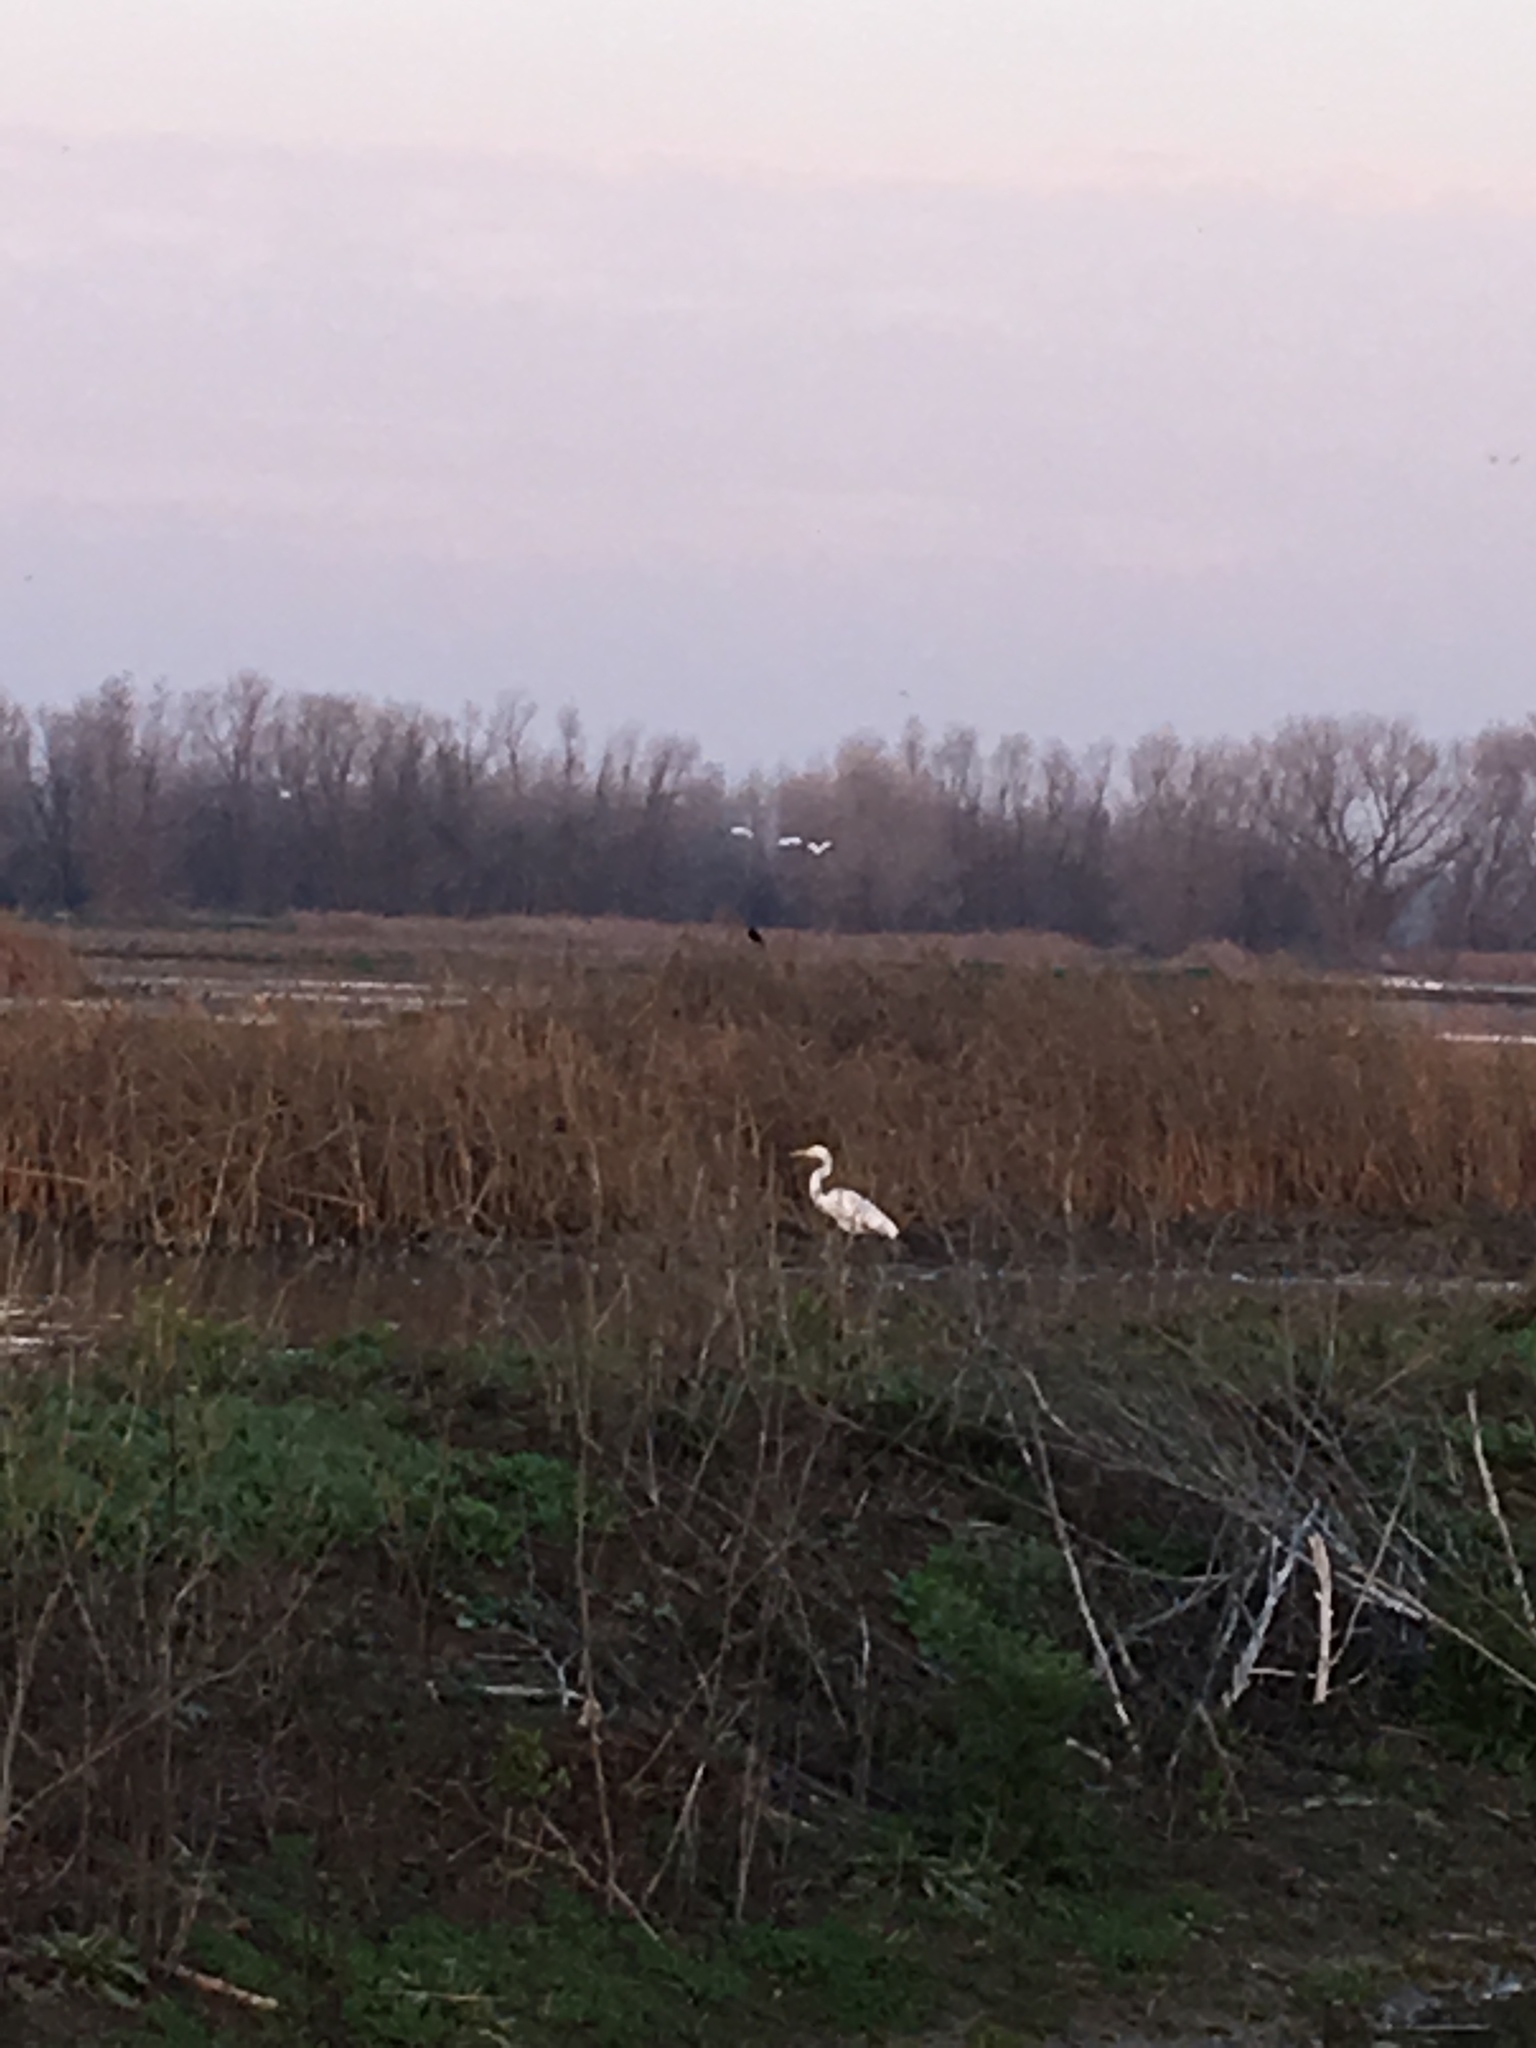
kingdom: Animalia
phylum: Chordata
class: Aves
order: Pelecaniformes
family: Ardeidae
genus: Ardea
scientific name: Ardea alba
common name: Great egret
